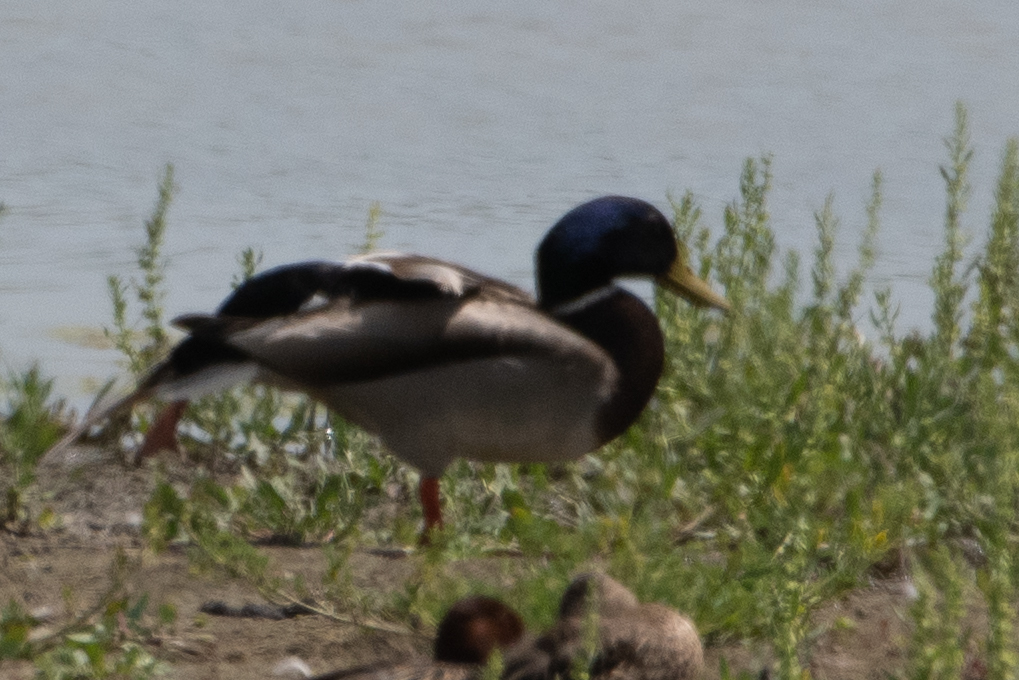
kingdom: Animalia
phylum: Chordata
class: Aves
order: Anseriformes
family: Anatidae
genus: Anas
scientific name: Anas platyrhynchos
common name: Mallard
